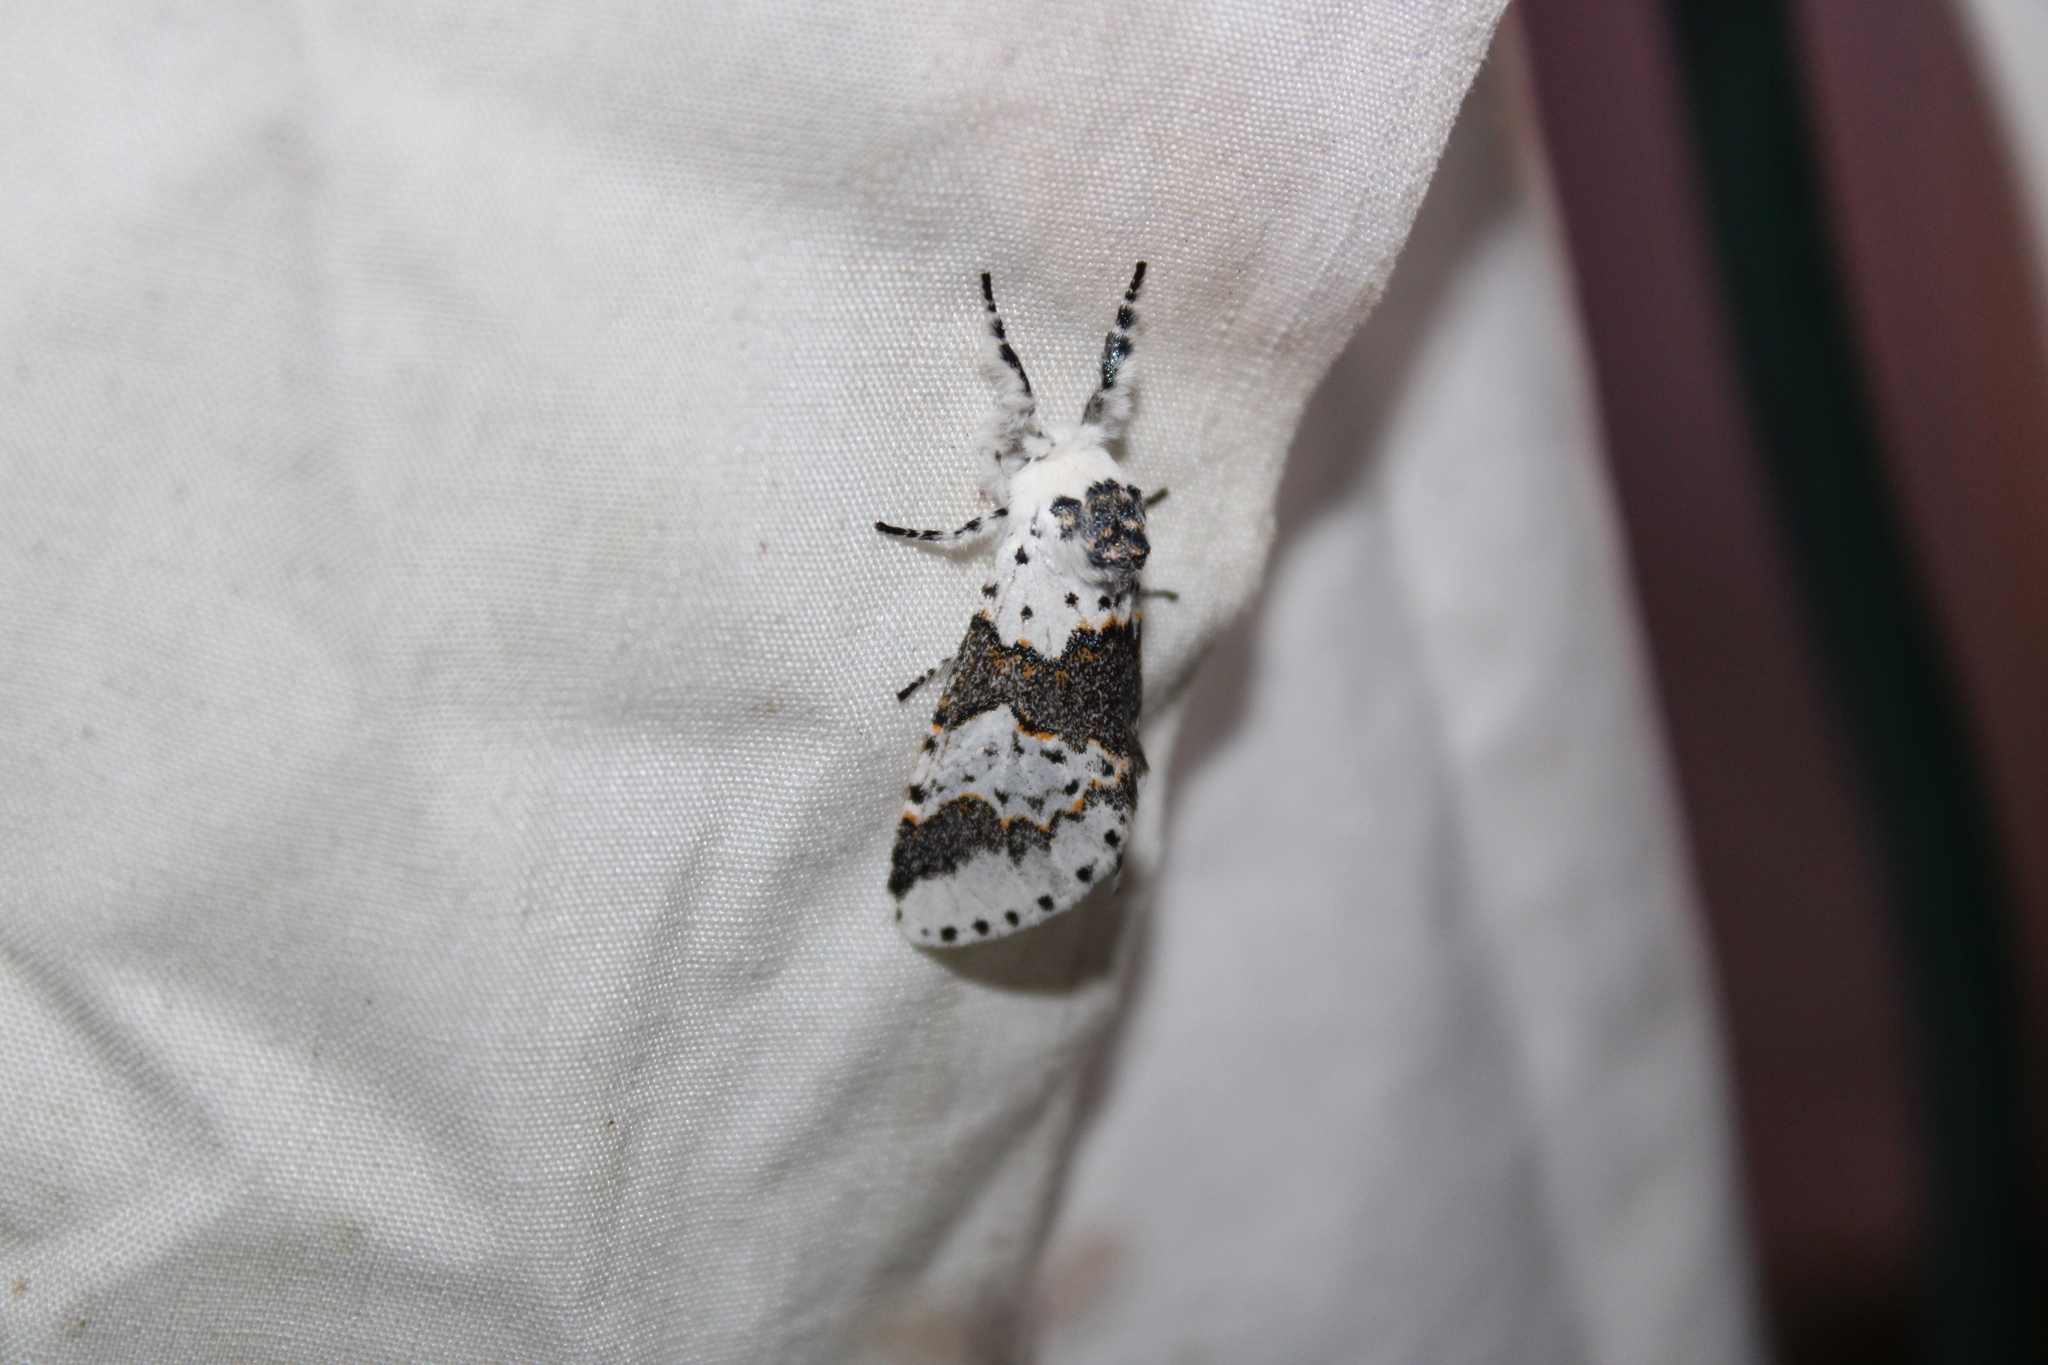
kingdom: Animalia
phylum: Arthropoda
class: Insecta
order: Lepidoptera
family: Notodontidae
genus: Furcula
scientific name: Furcula borealis
